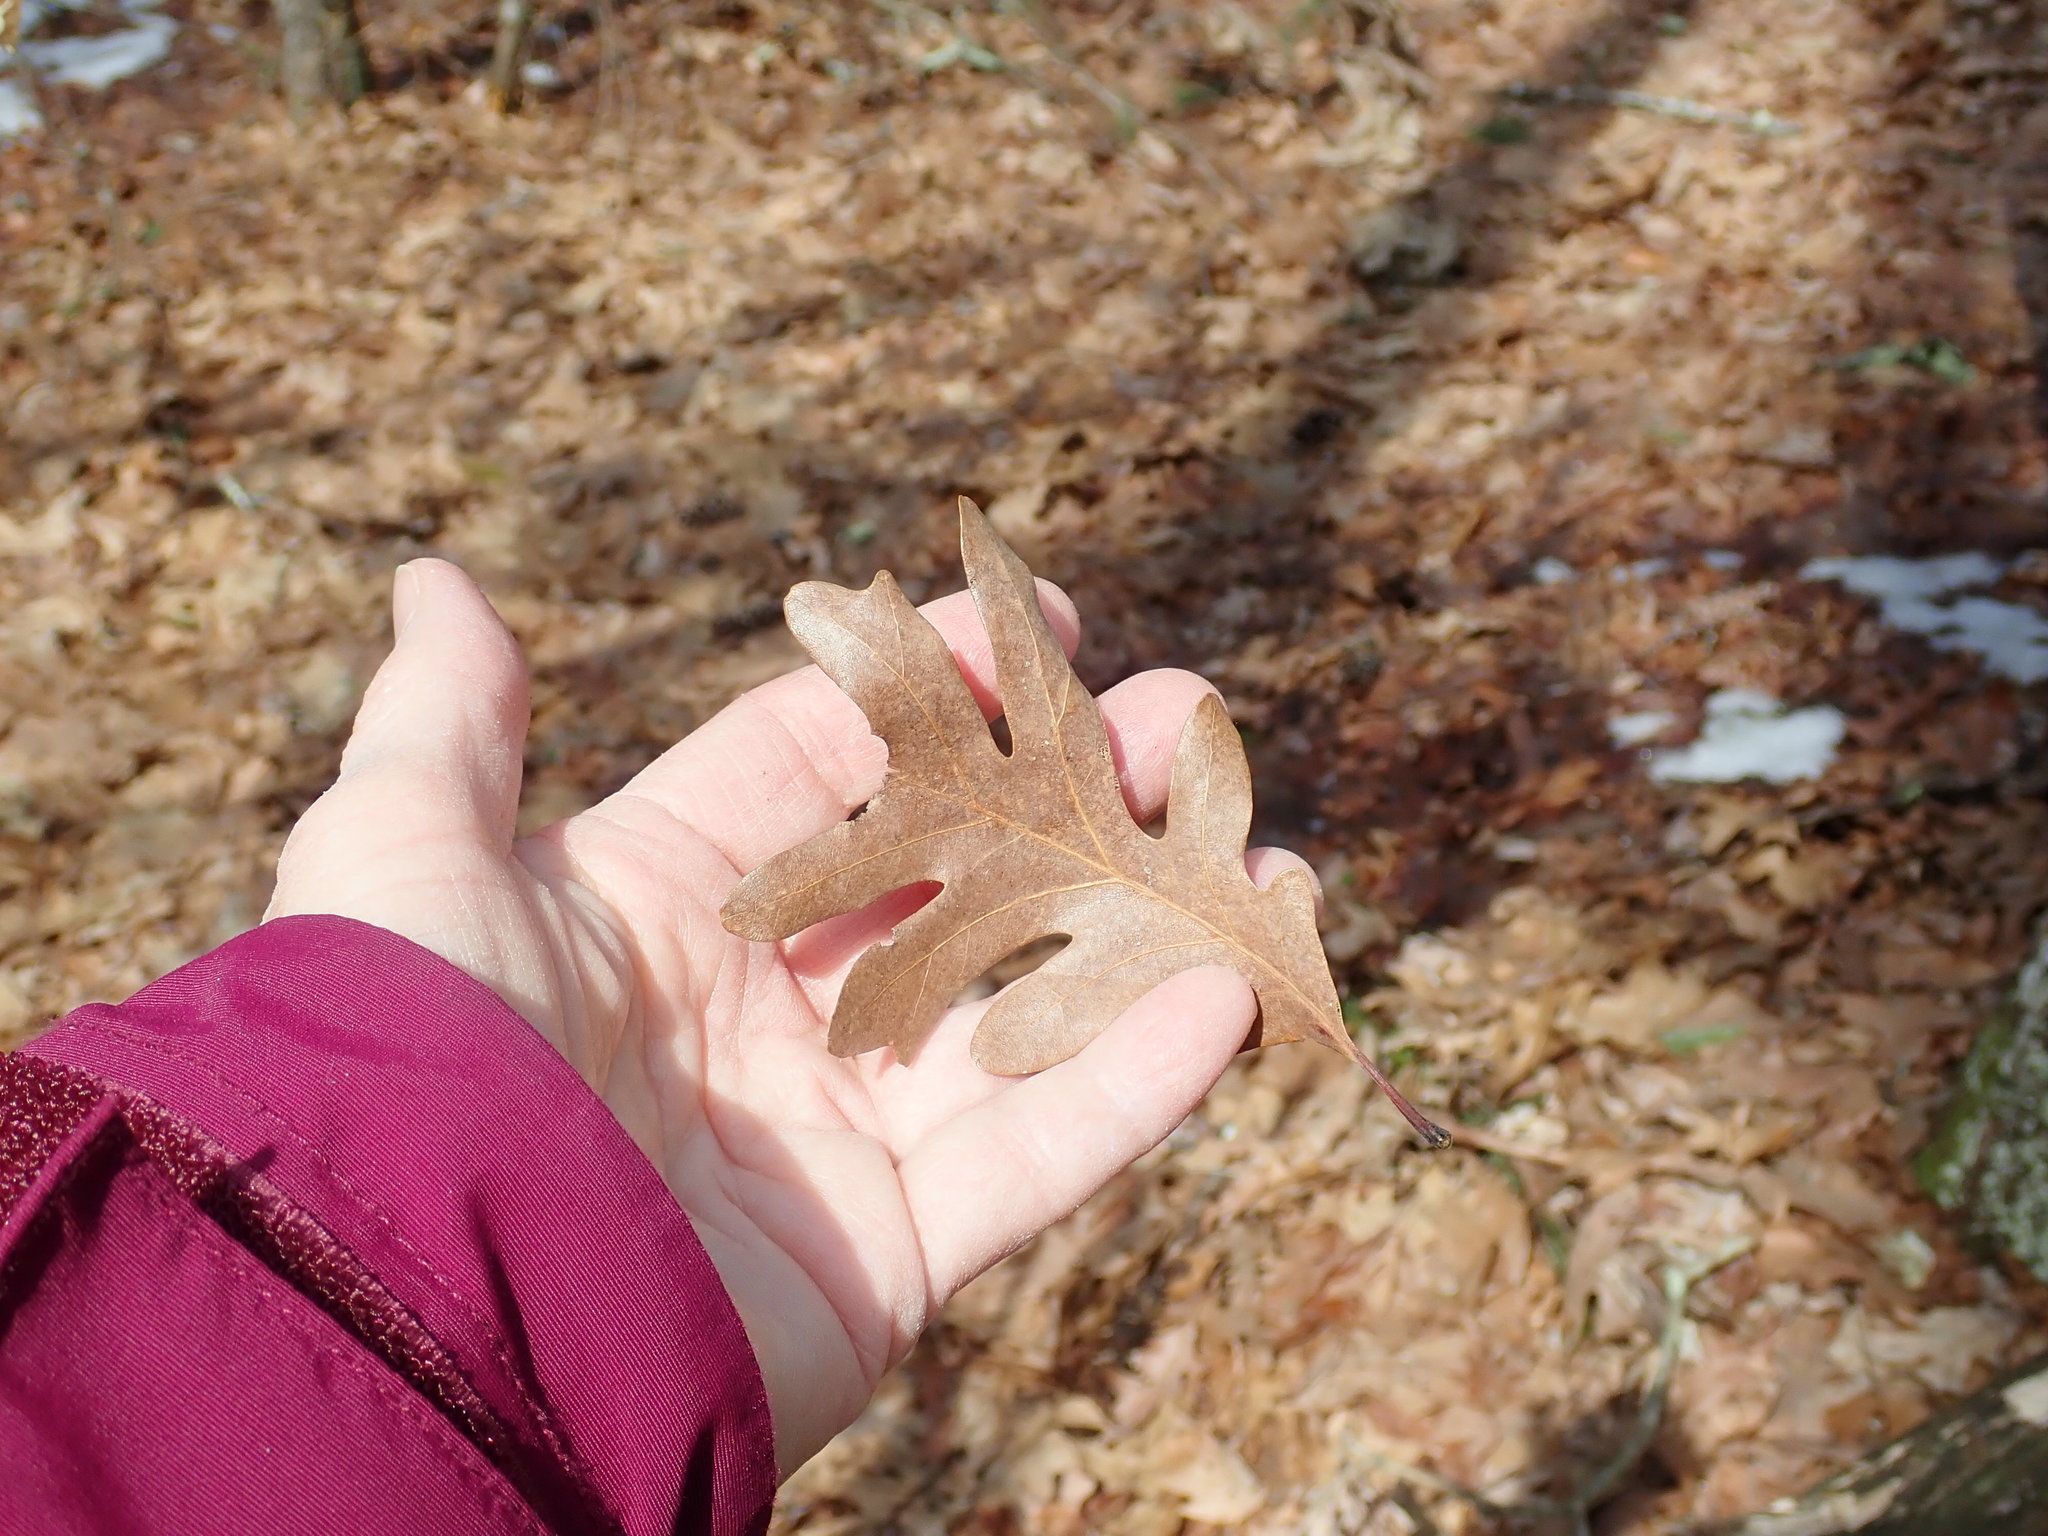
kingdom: Plantae
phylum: Tracheophyta
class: Magnoliopsida
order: Fagales
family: Fagaceae
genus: Quercus
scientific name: Quercus alba
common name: White oak
